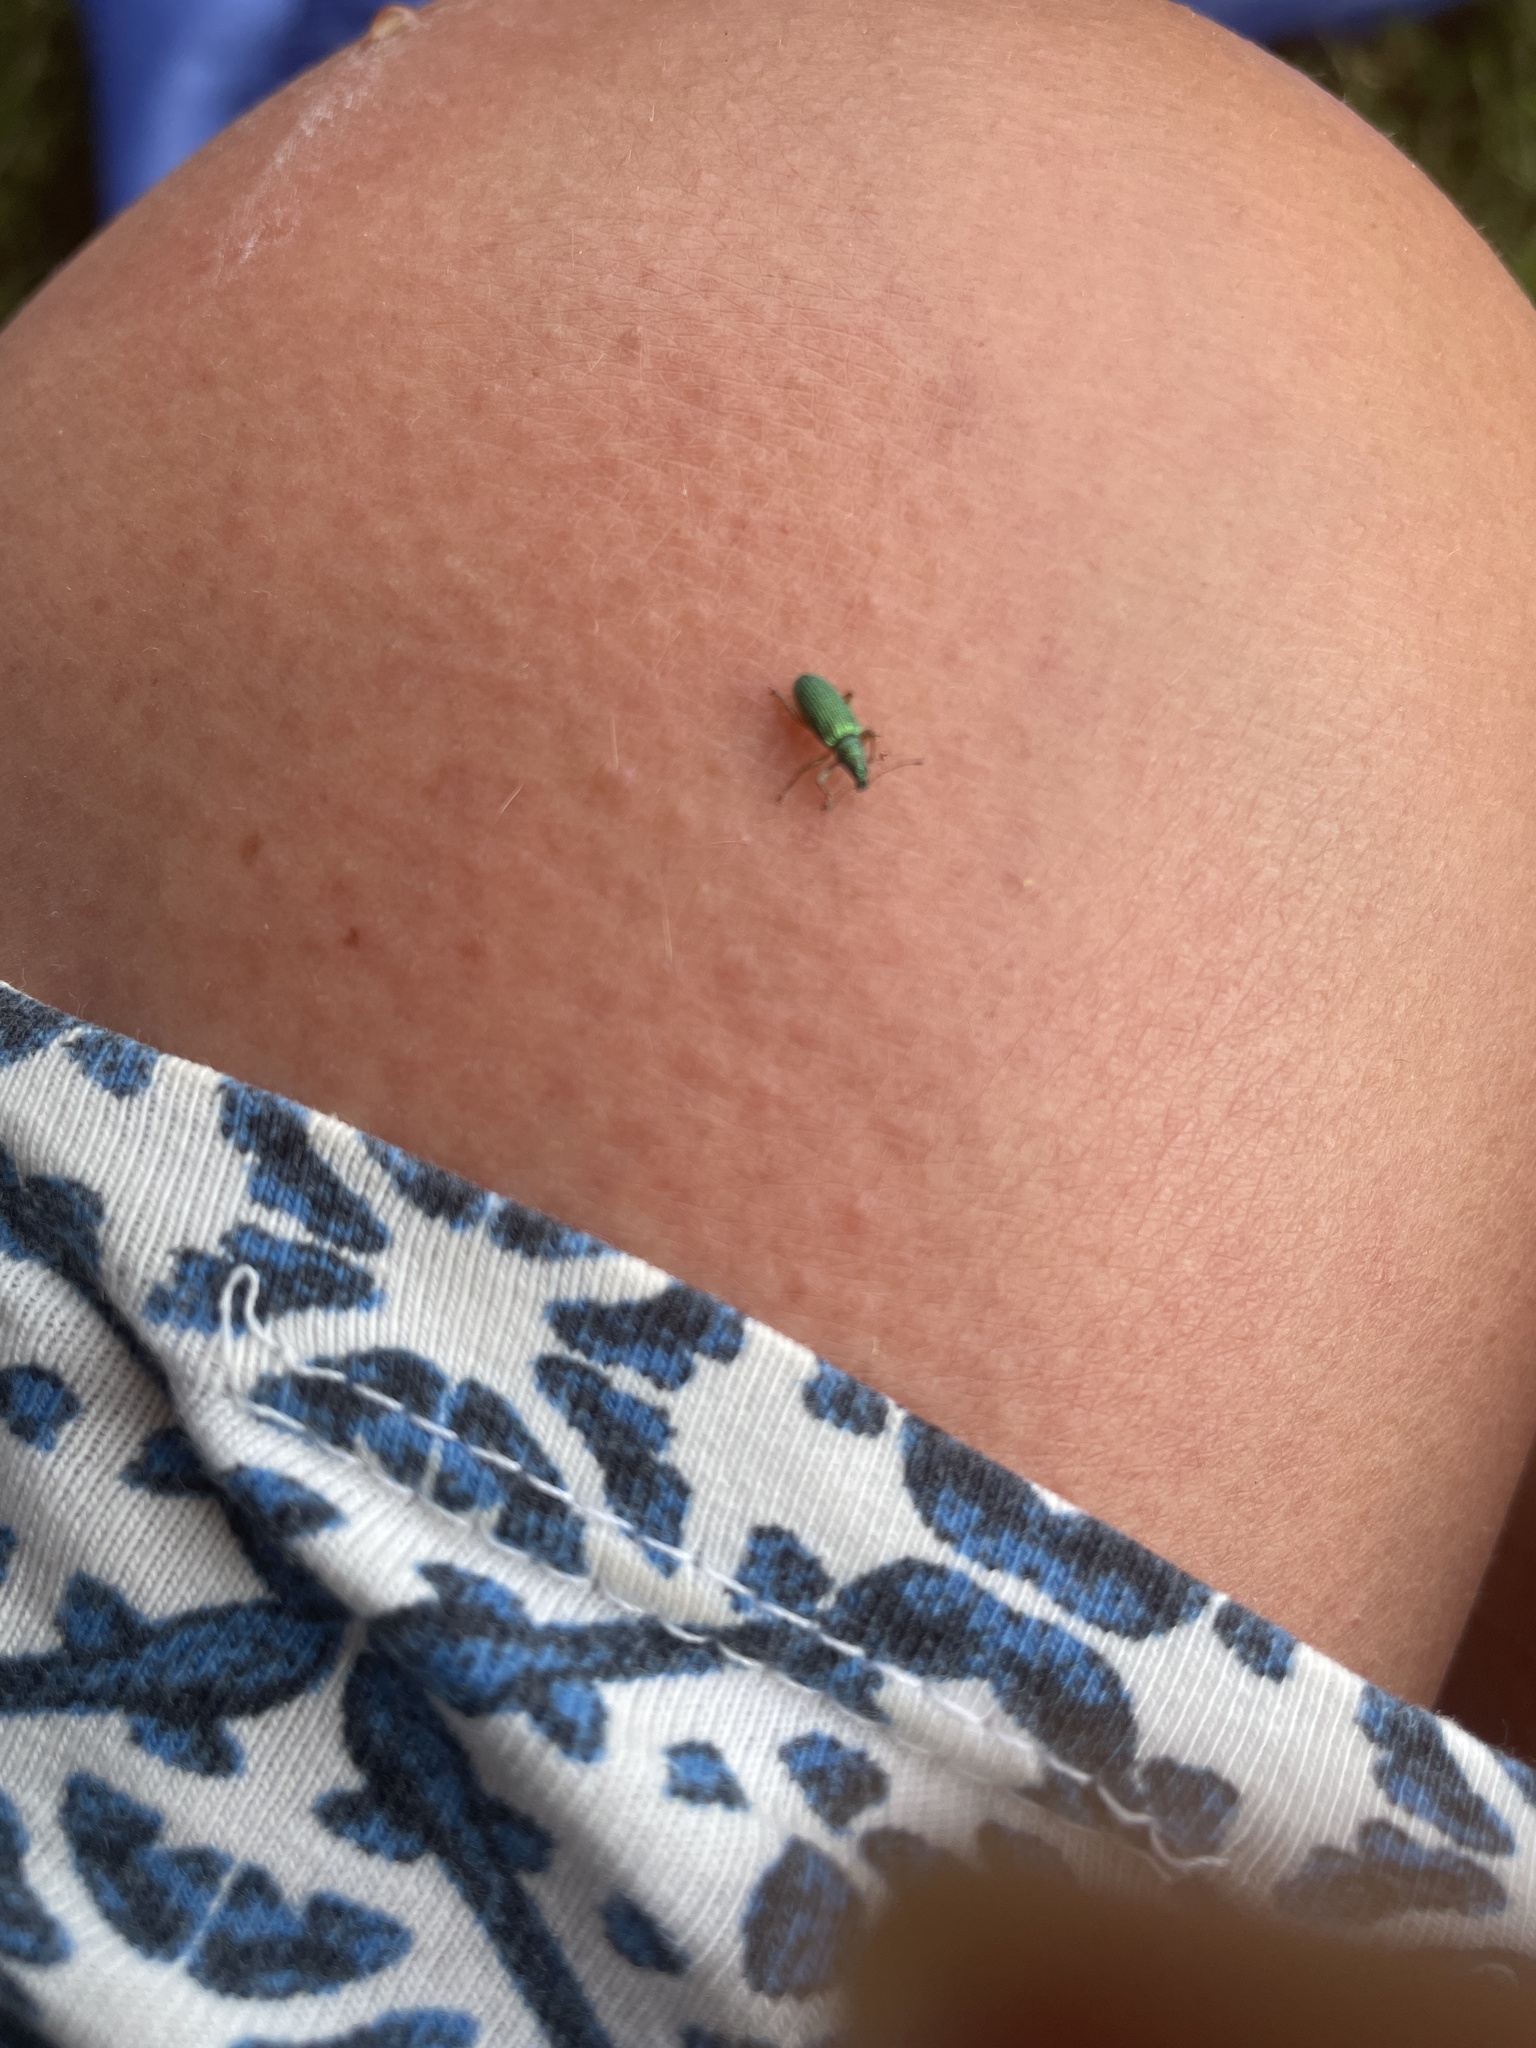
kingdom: Animalia
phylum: Arthropoda
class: Insecta
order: Coleoptera
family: Curculionidae
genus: Polydrusus
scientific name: Polydrusus formosus
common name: Weevil
